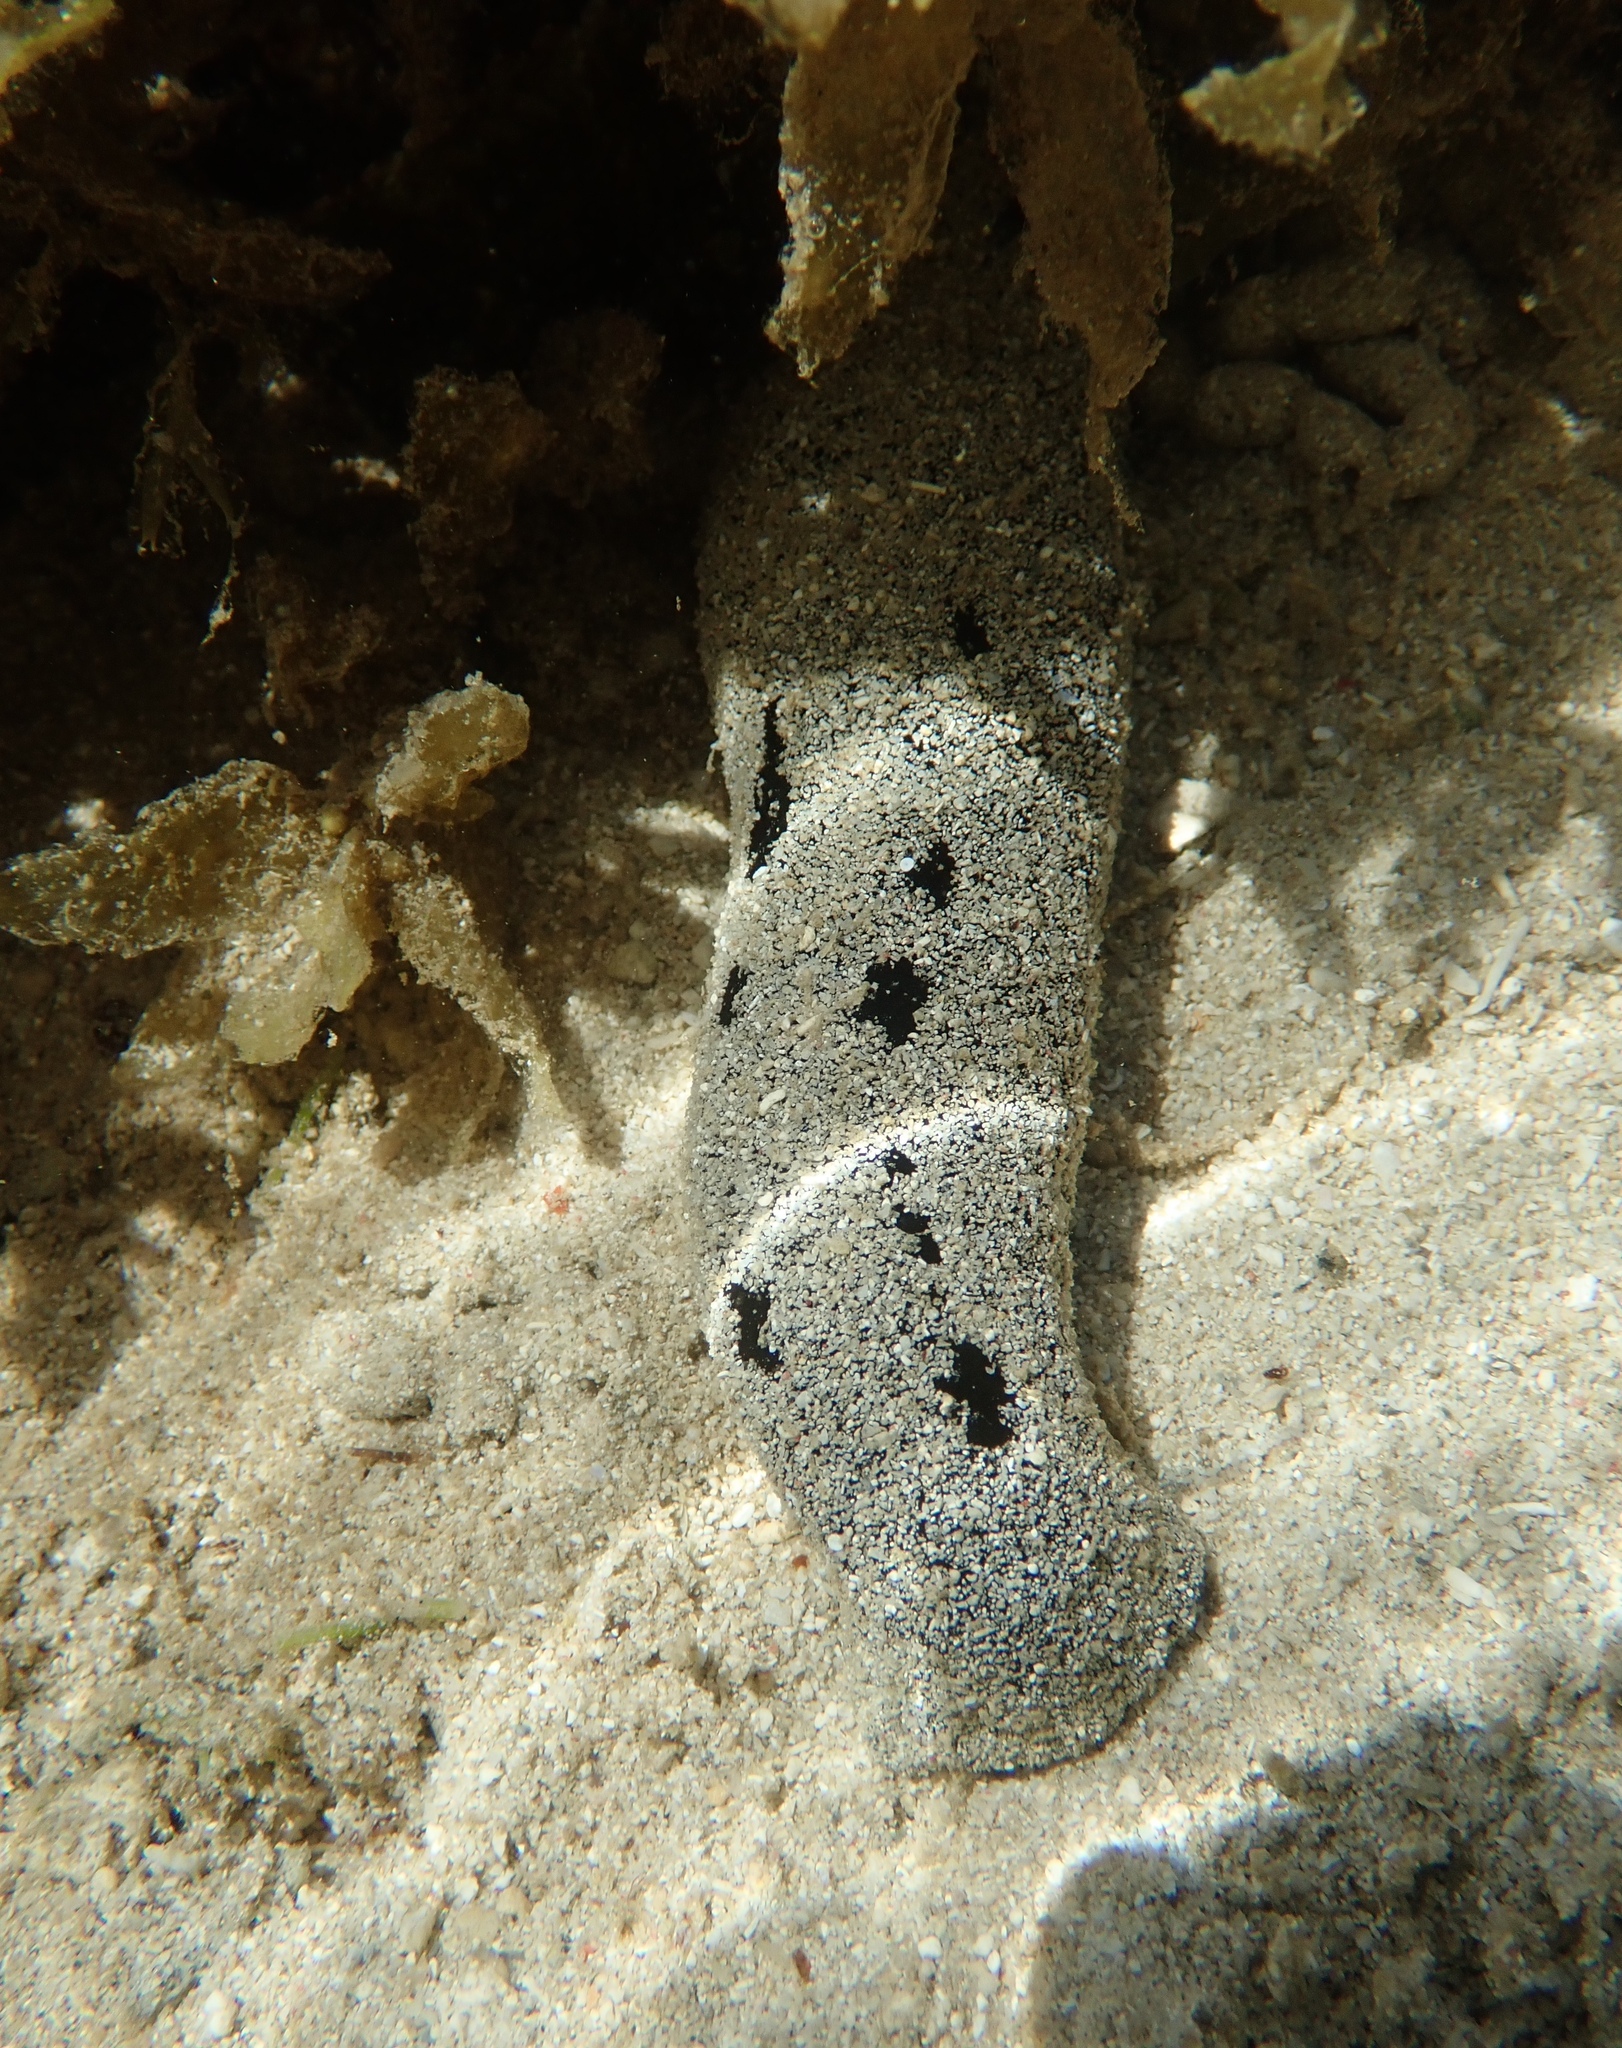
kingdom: Animalia
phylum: Echinodermata
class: Holothuroidea
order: Holothuriida
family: Holothuriidae
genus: Holothuria
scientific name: Holothuria atra
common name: Lollyfish
